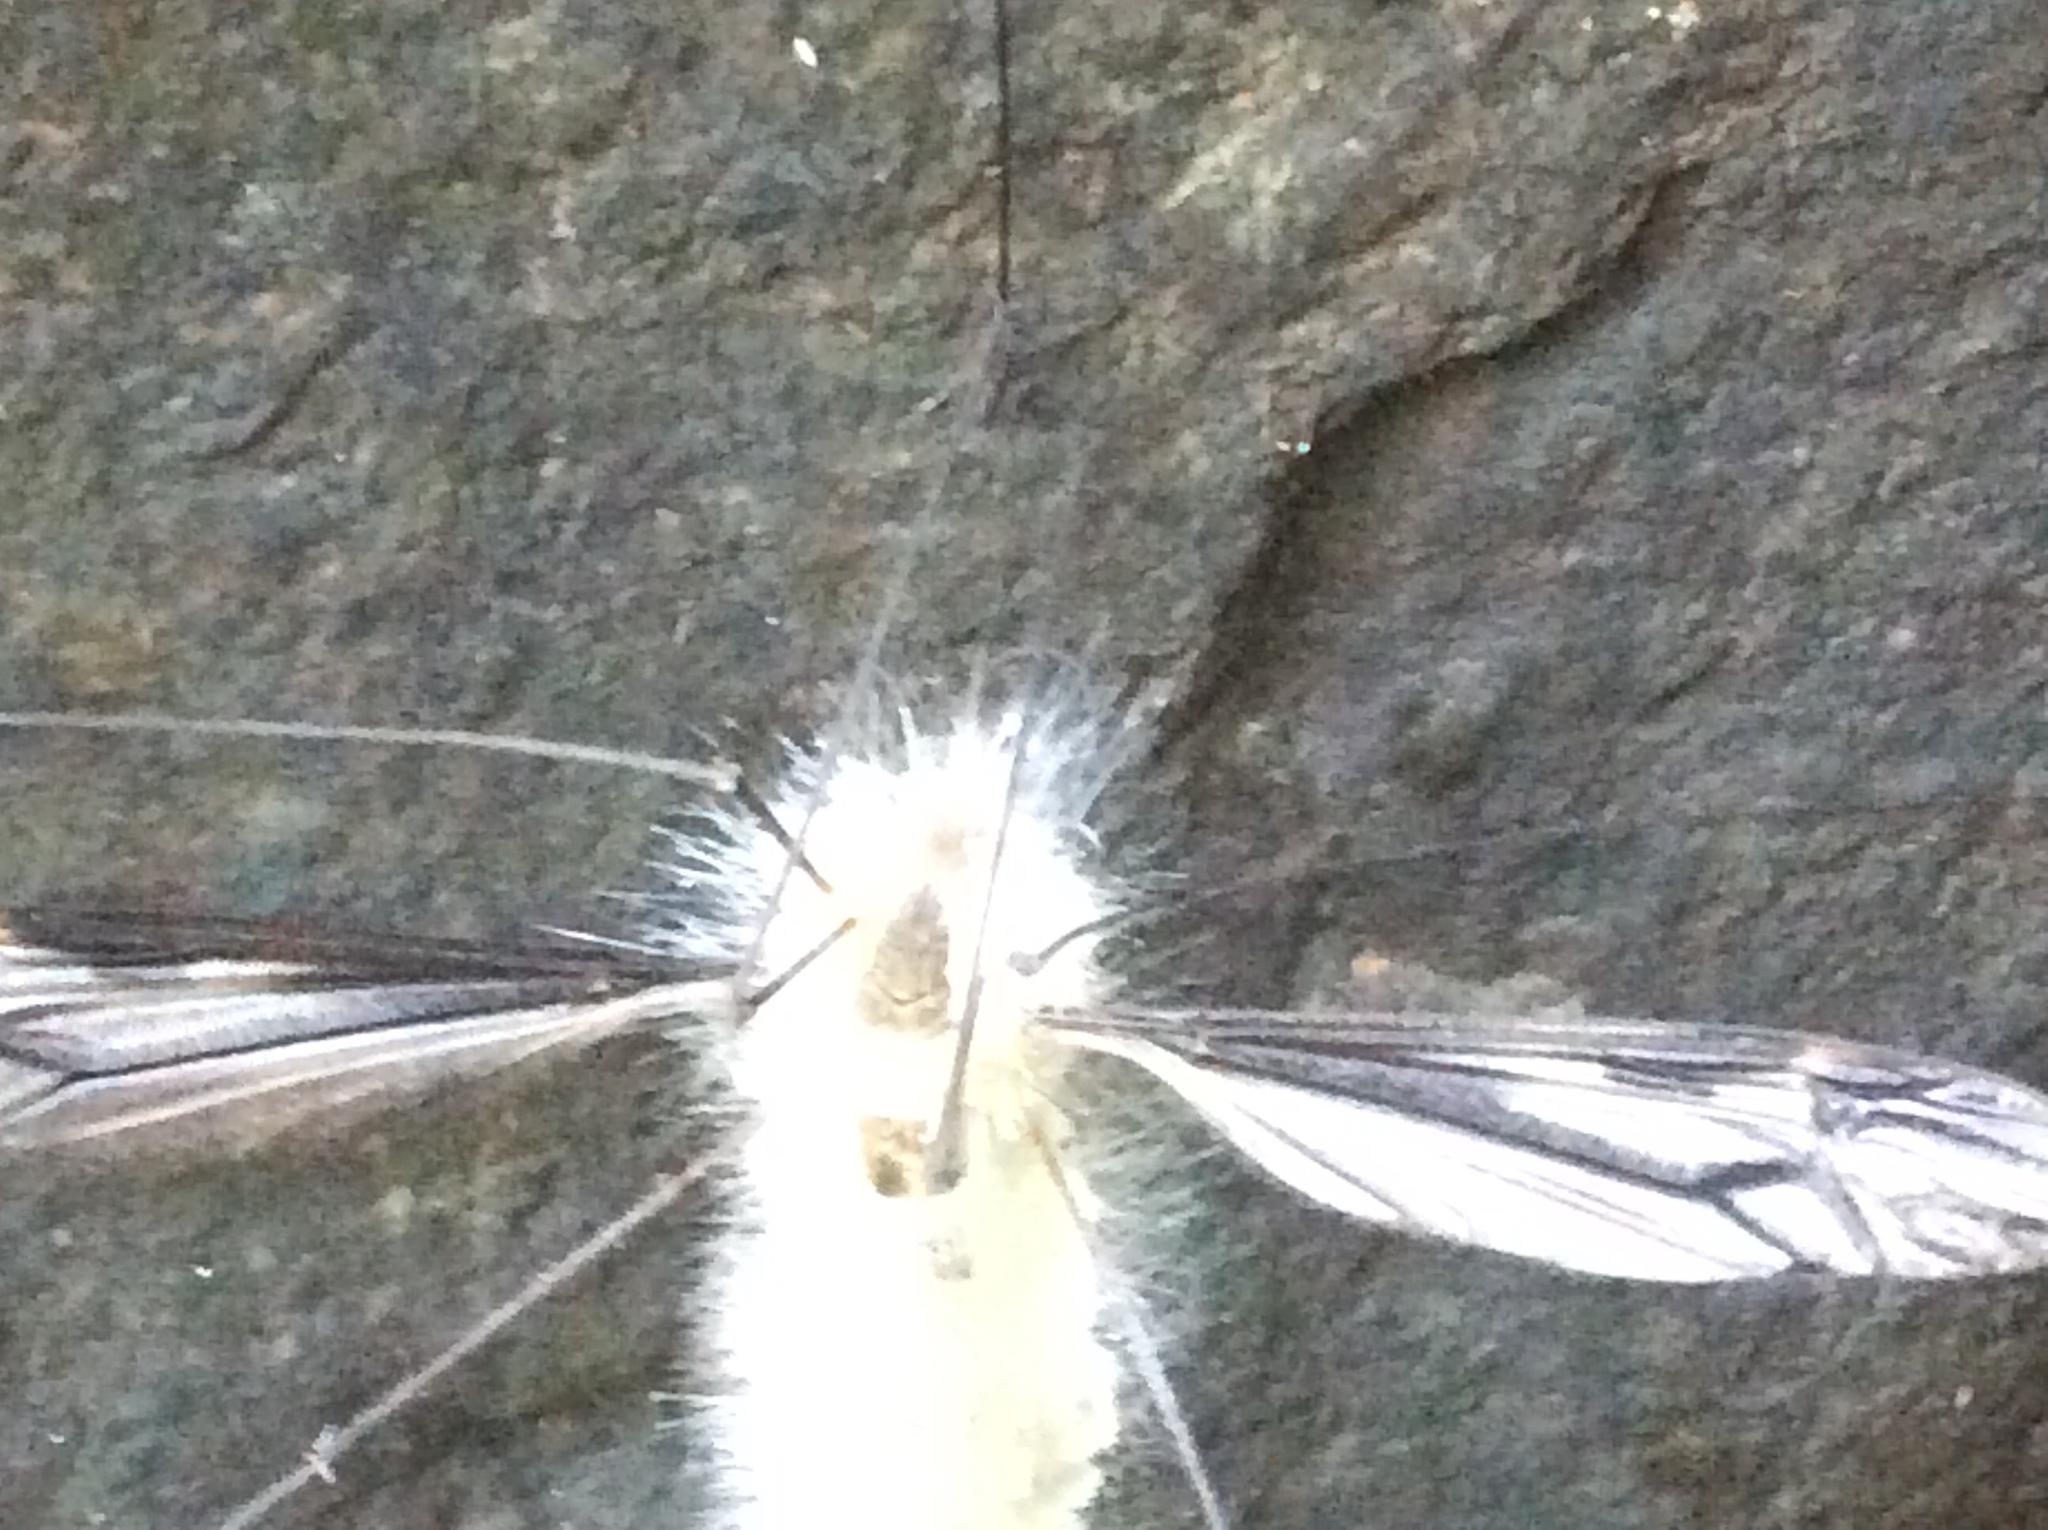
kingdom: Animalia
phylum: Arthropoda
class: Insecta
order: Diptera
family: Tipulidae
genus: Tipula
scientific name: Tipula furca
